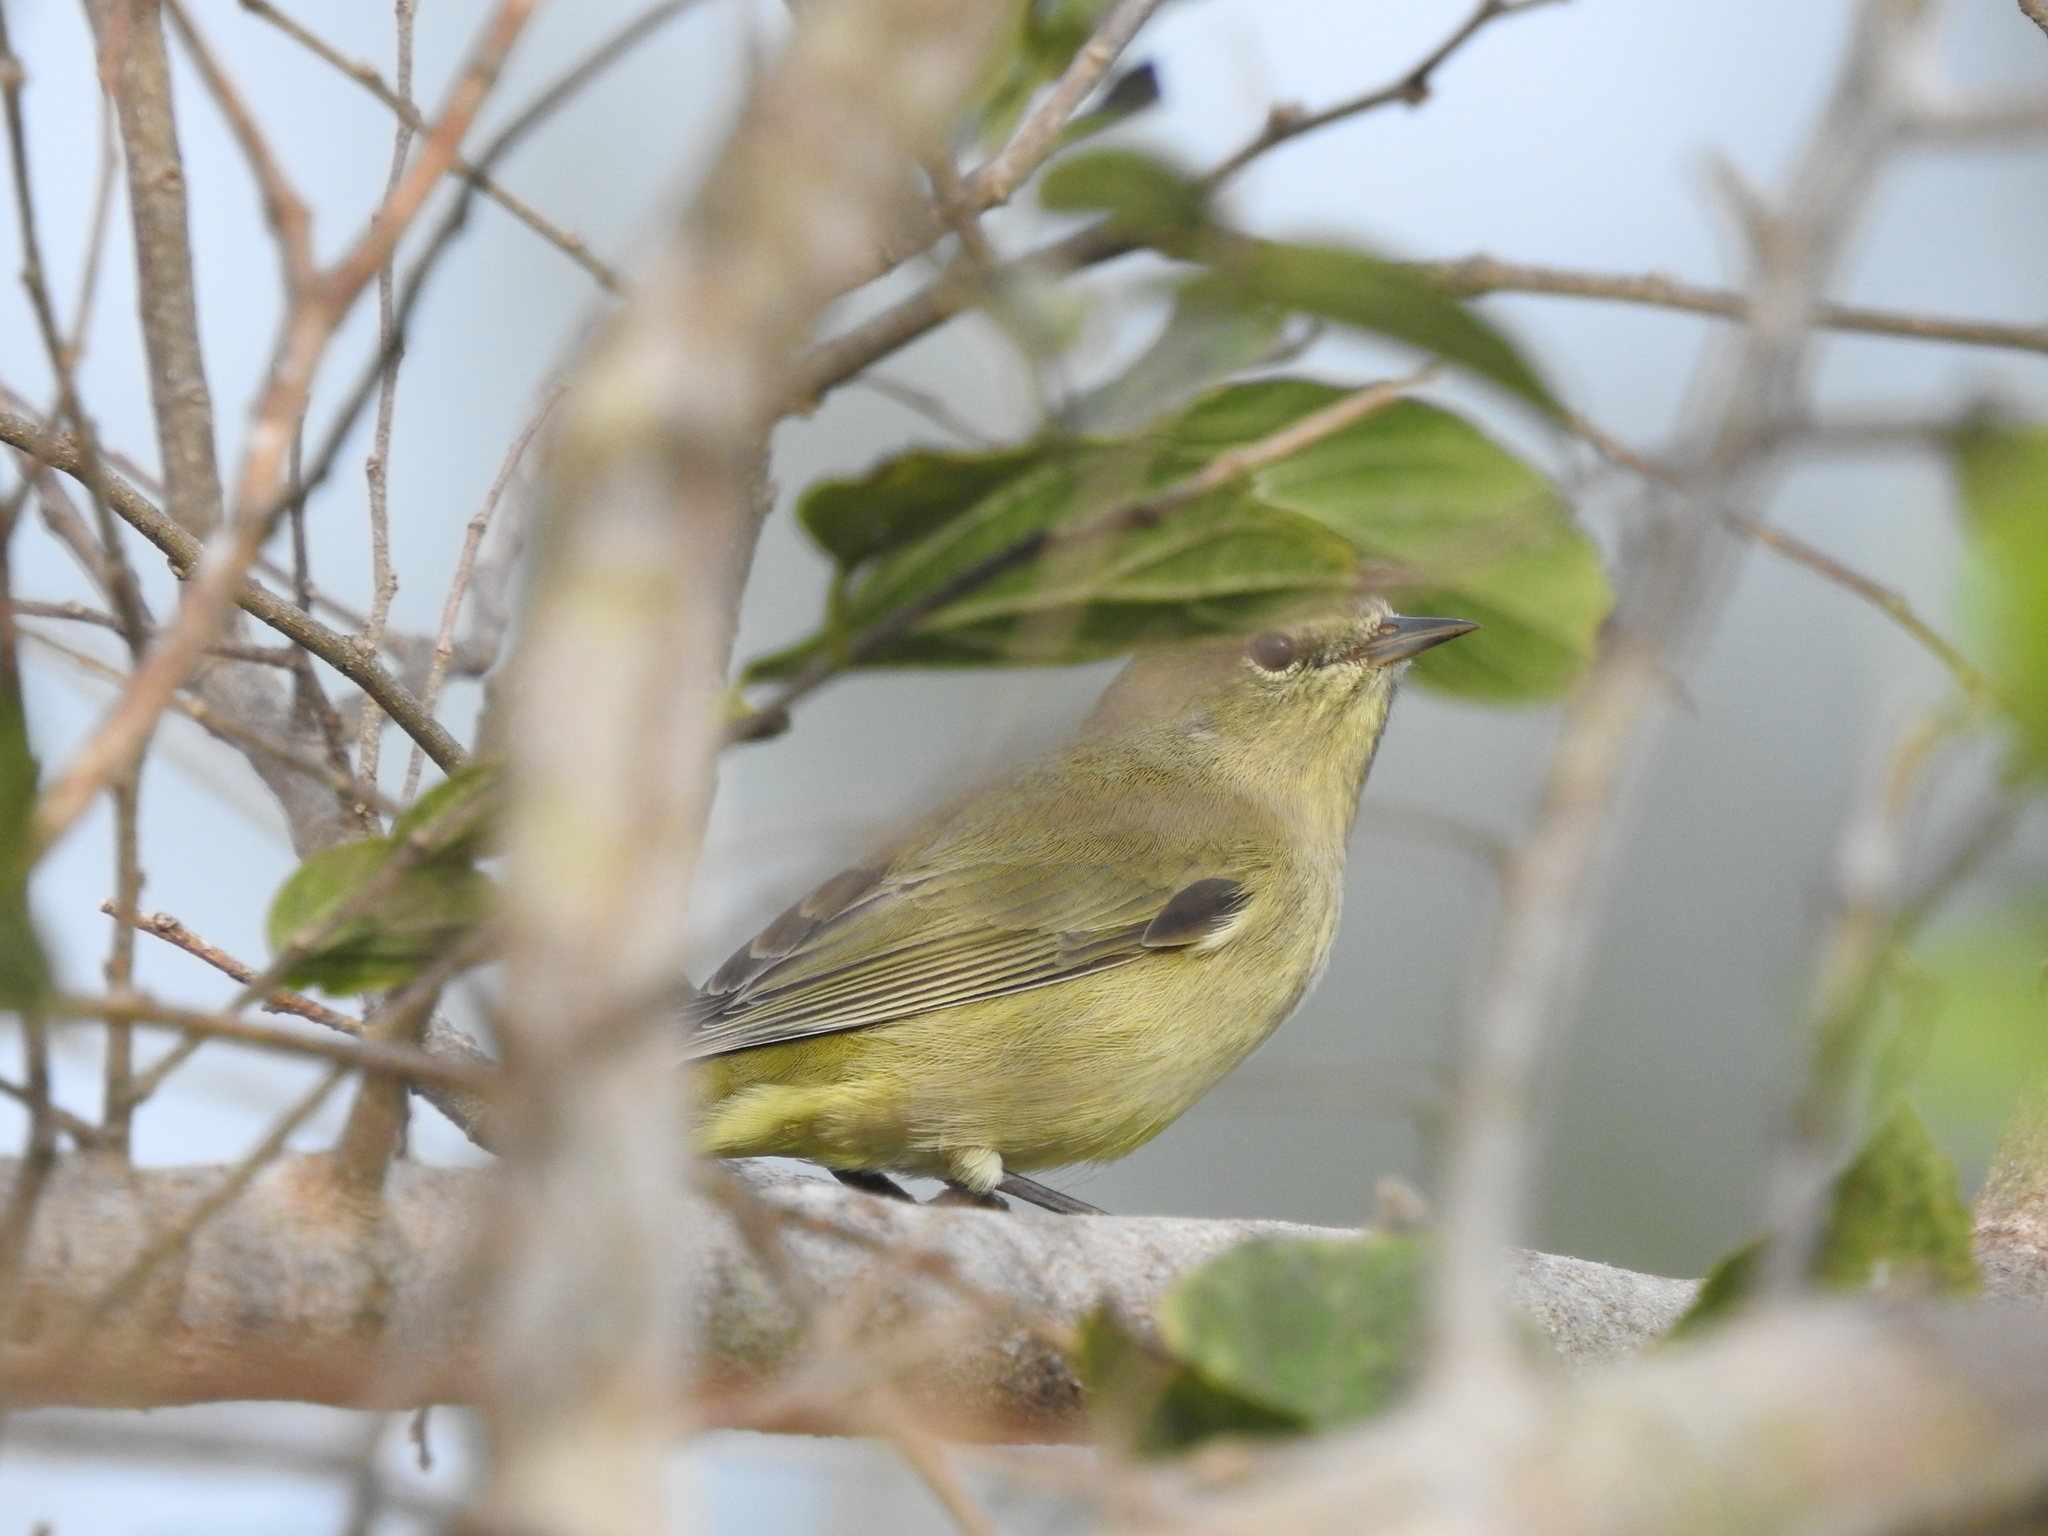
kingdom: Animalia
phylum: Chordata
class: Aves
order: Passeriformes
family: Parulidae
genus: Leiothlypis
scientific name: Leiothlypis celata
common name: Orange-crowned warbler
